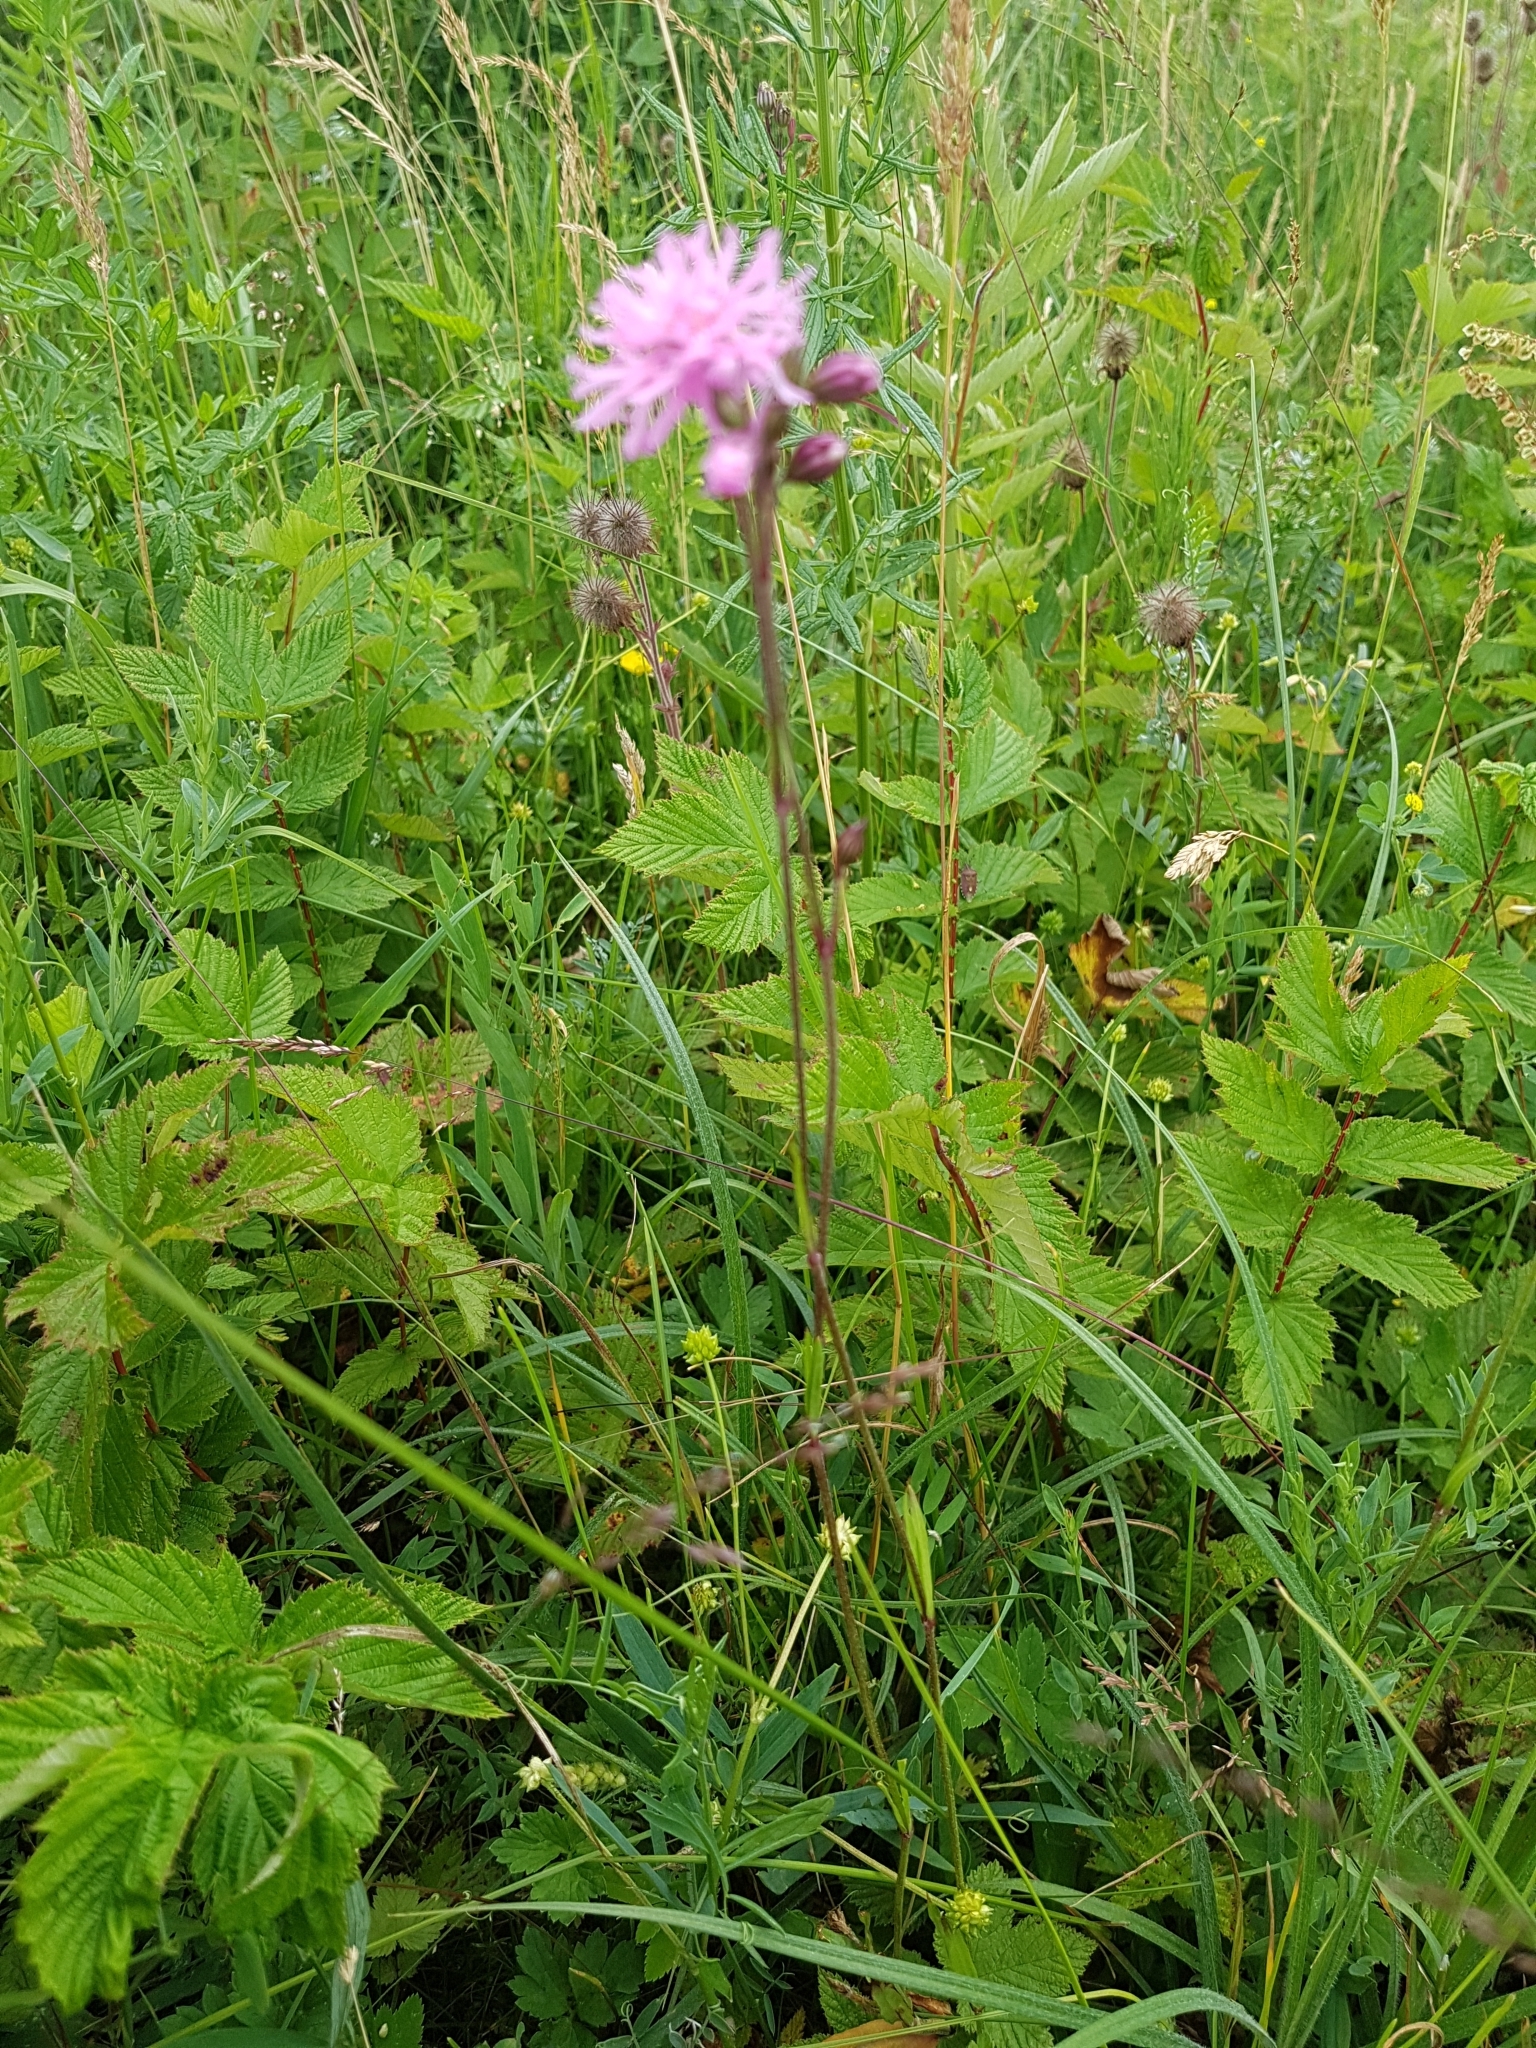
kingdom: Plantae
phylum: Tracheophyta
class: Magnoliopsida
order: Caryophyllales
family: Caryophyllaceae
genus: Silene
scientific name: Silene flos-cuculi
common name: Ragged-robin
